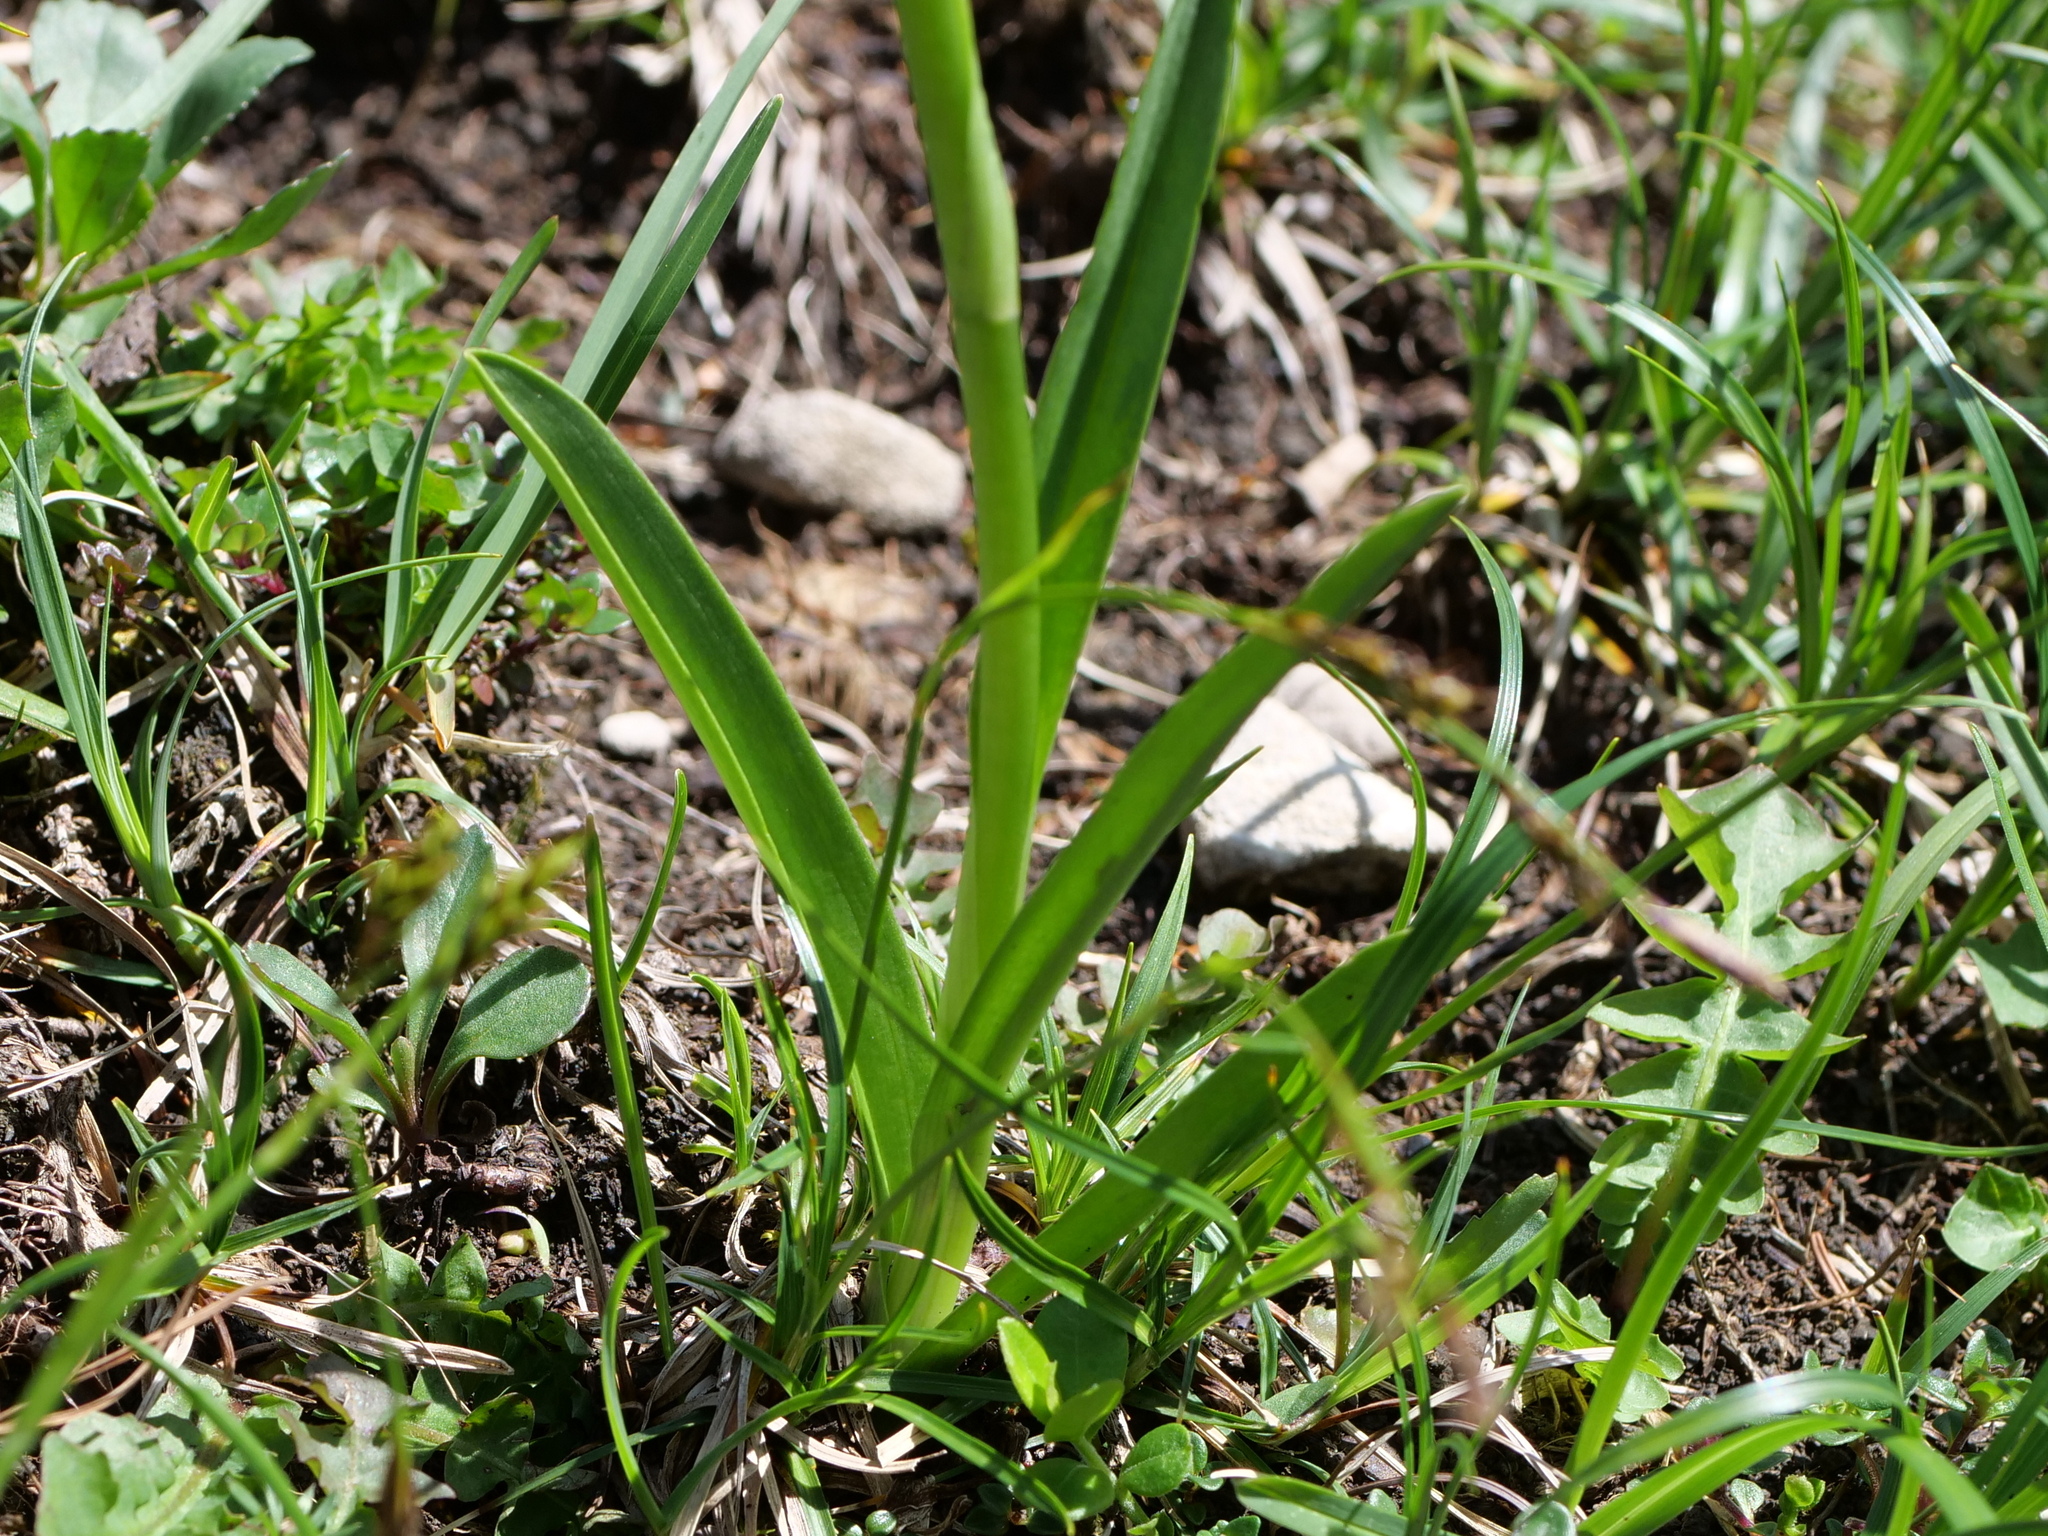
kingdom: Plantae
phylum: Tracheophyta
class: Liliopsida
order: Asparagales
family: Orchidaceae
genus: Gymnadenia
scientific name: Gymnadenia conopsea
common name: Fragrant orchid
